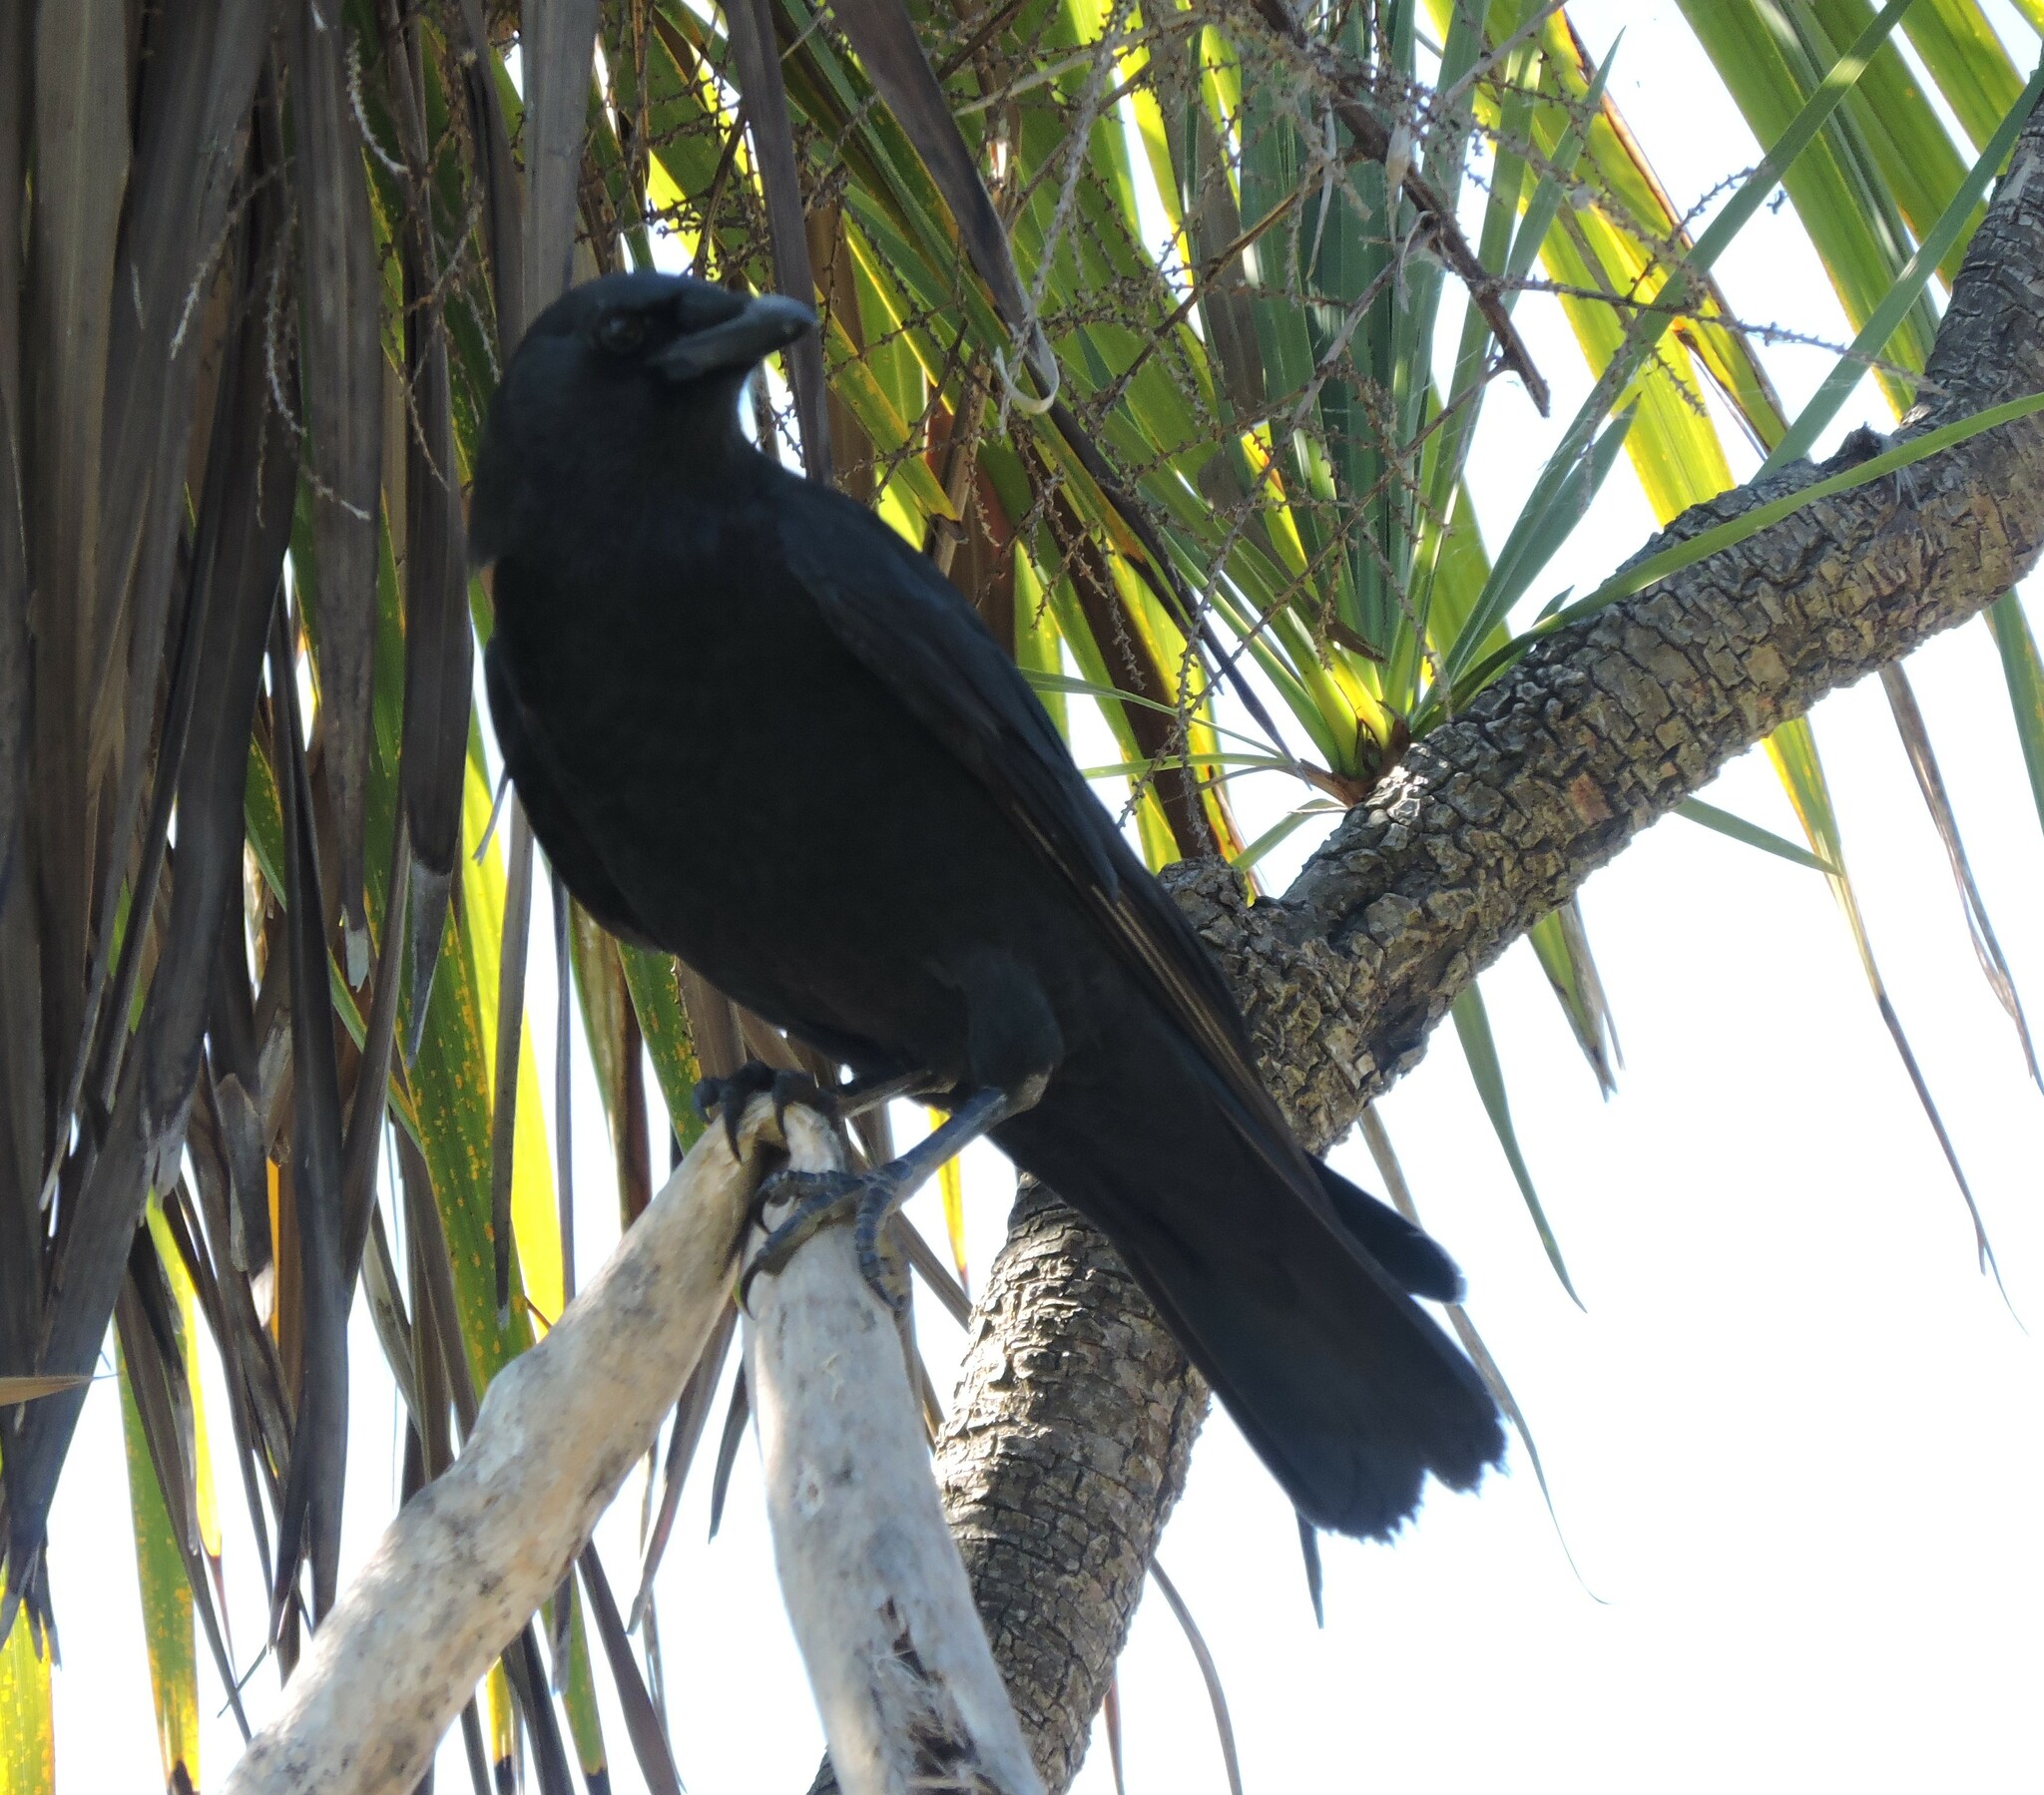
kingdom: Animalia
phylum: Chordata
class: Aves
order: Passeriformes
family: Corvidae
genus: Corvus
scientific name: Corvus brachyrhynchos
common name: American crow
